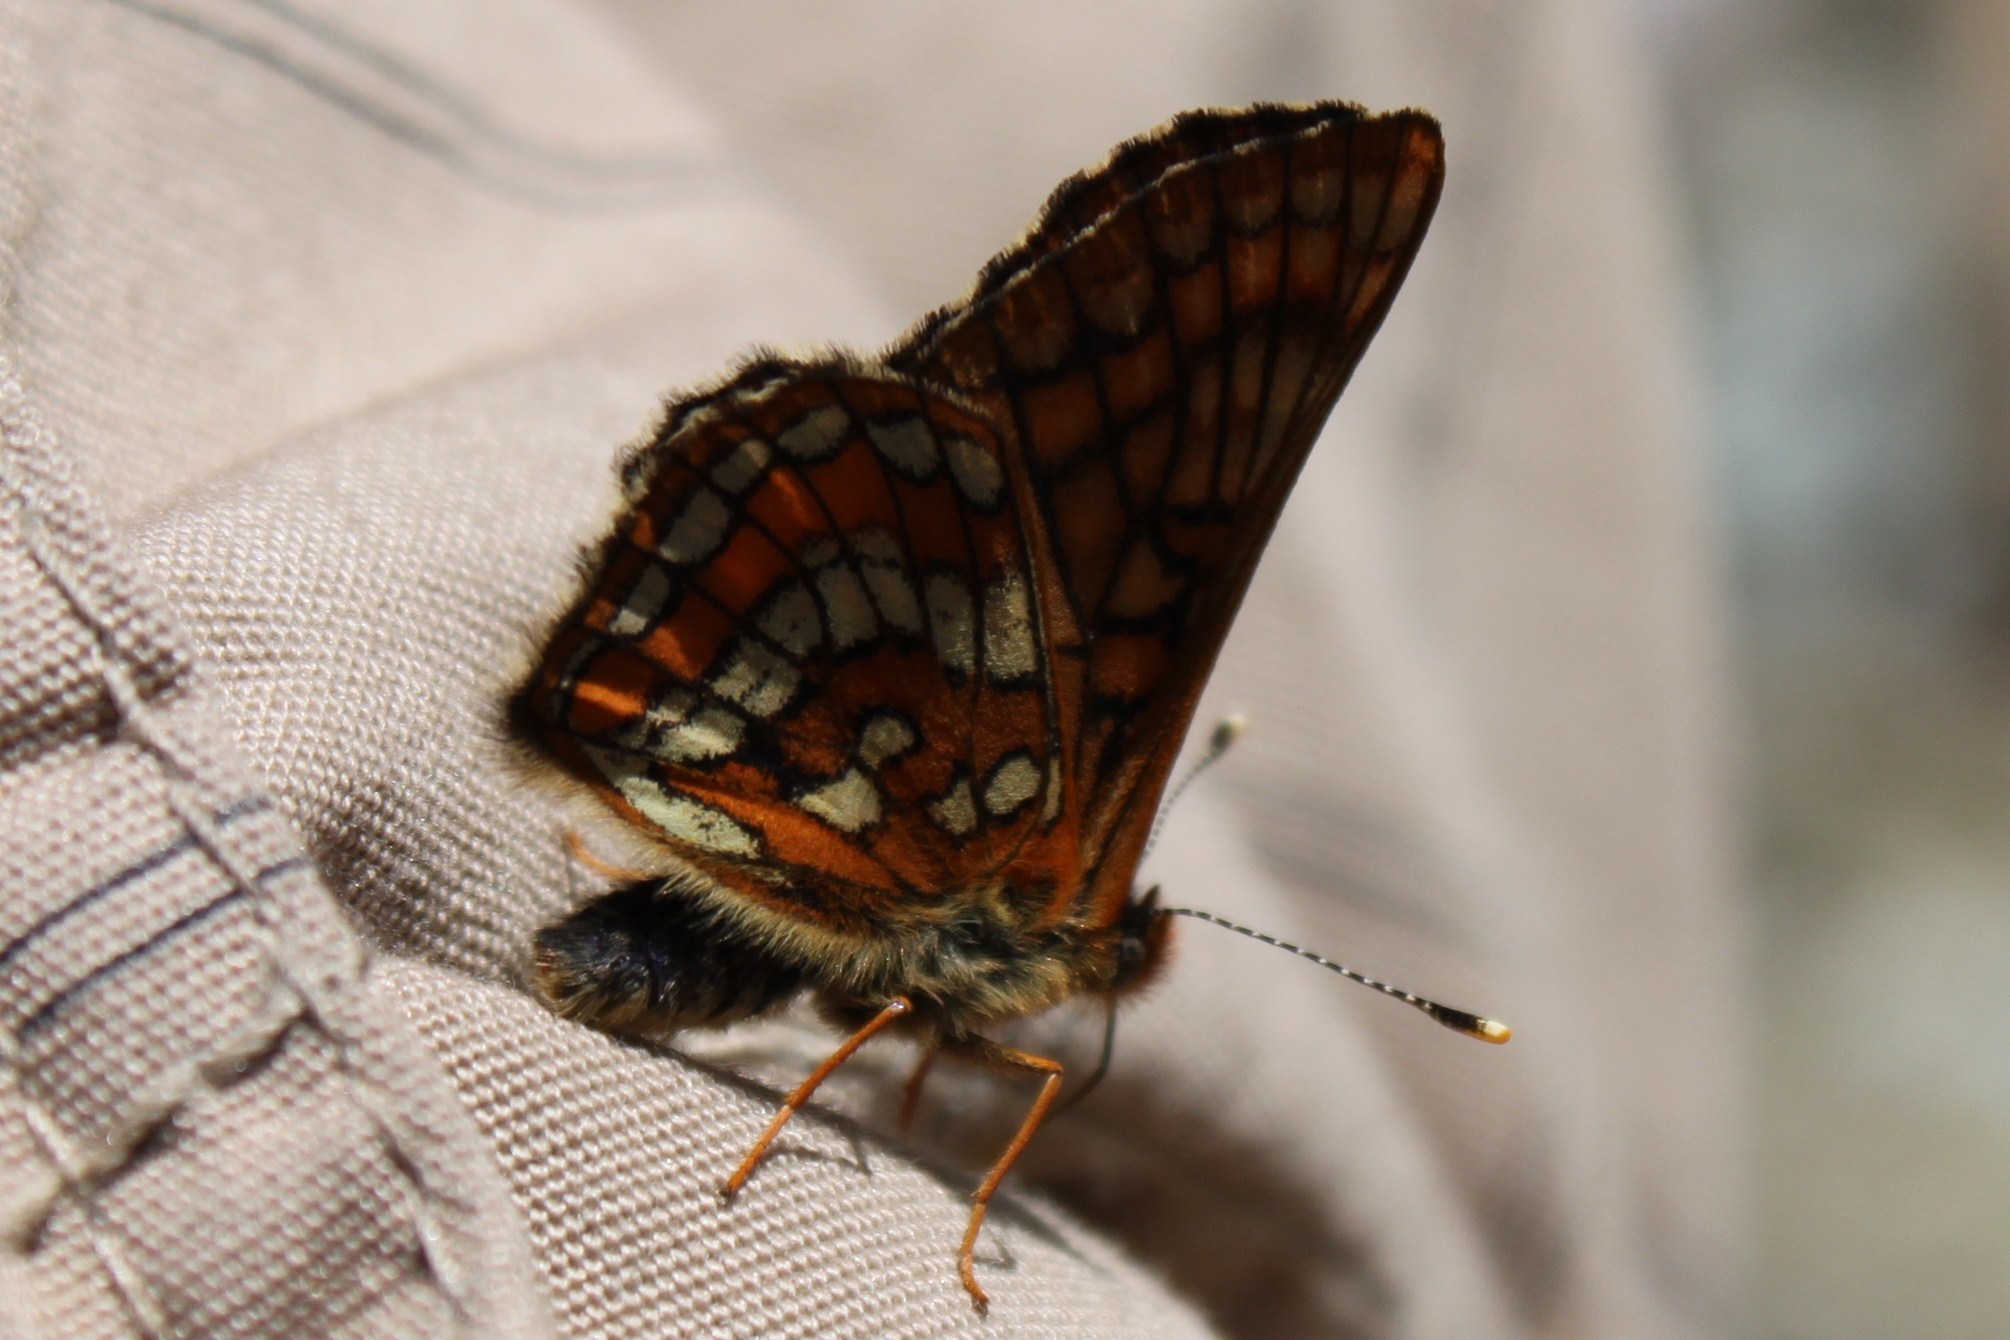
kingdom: Animalia
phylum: Arthropoda
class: Insecta
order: Lepidoptera
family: Nymphalidae
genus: Hypodryas
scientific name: Hypodryas intermedia
